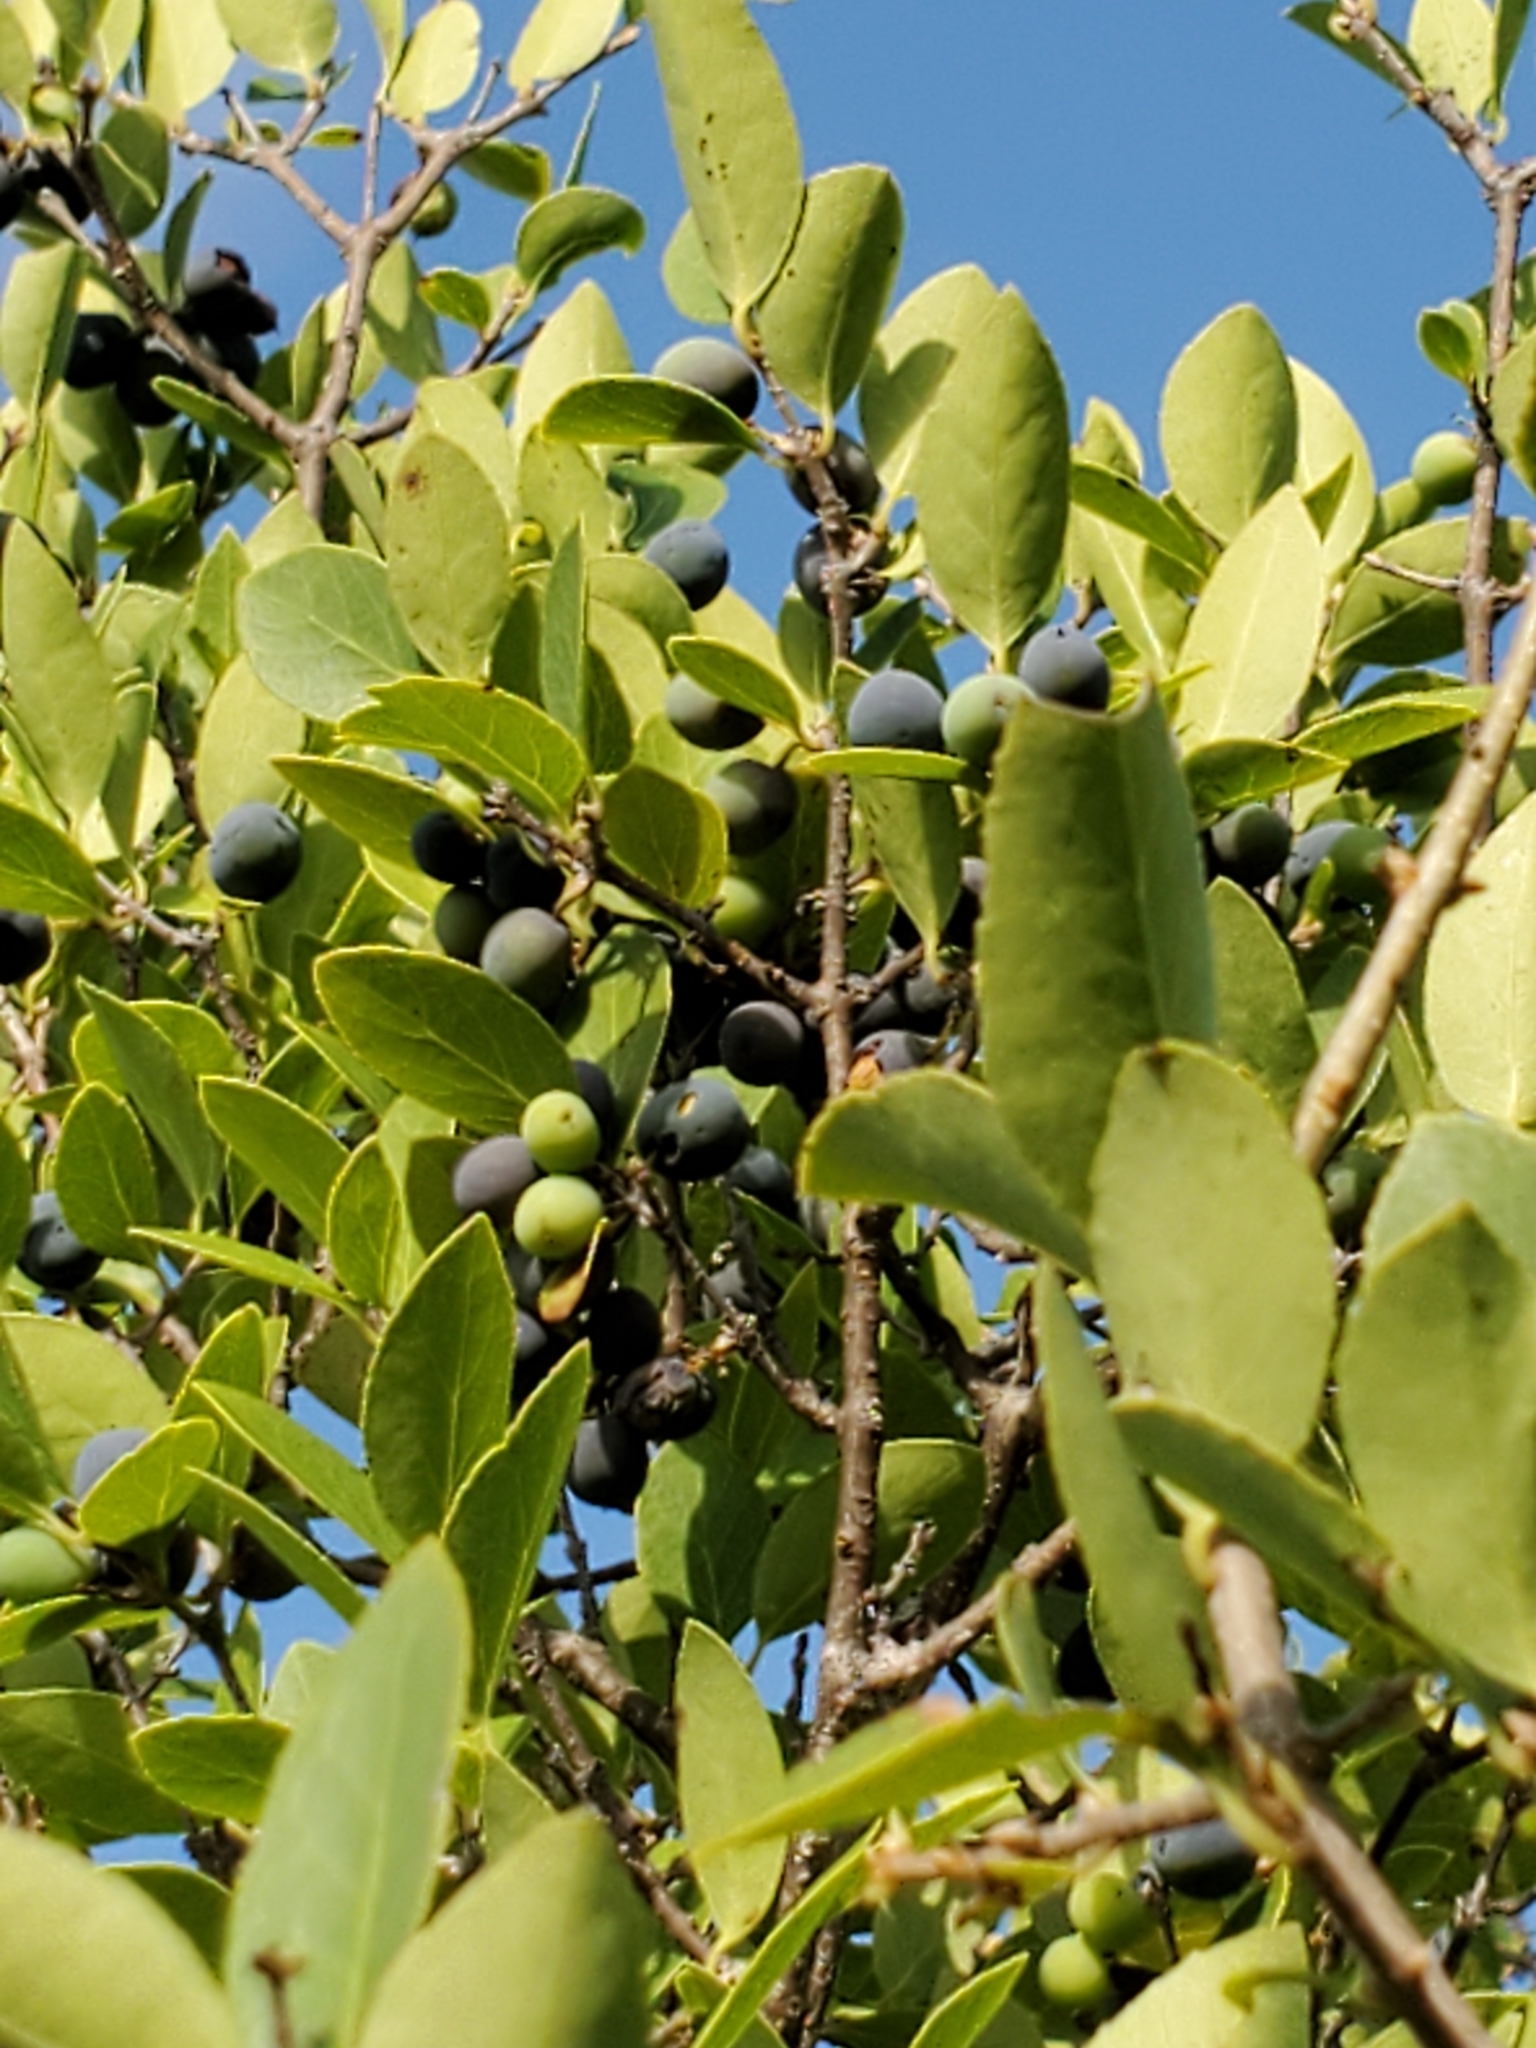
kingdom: Plantae
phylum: Tracheophyta
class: Magnoliopsida
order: Lamiales
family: Oleaceae
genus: Forestiera
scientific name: Forestiera reticulata
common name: Netleaf swamp-privet
